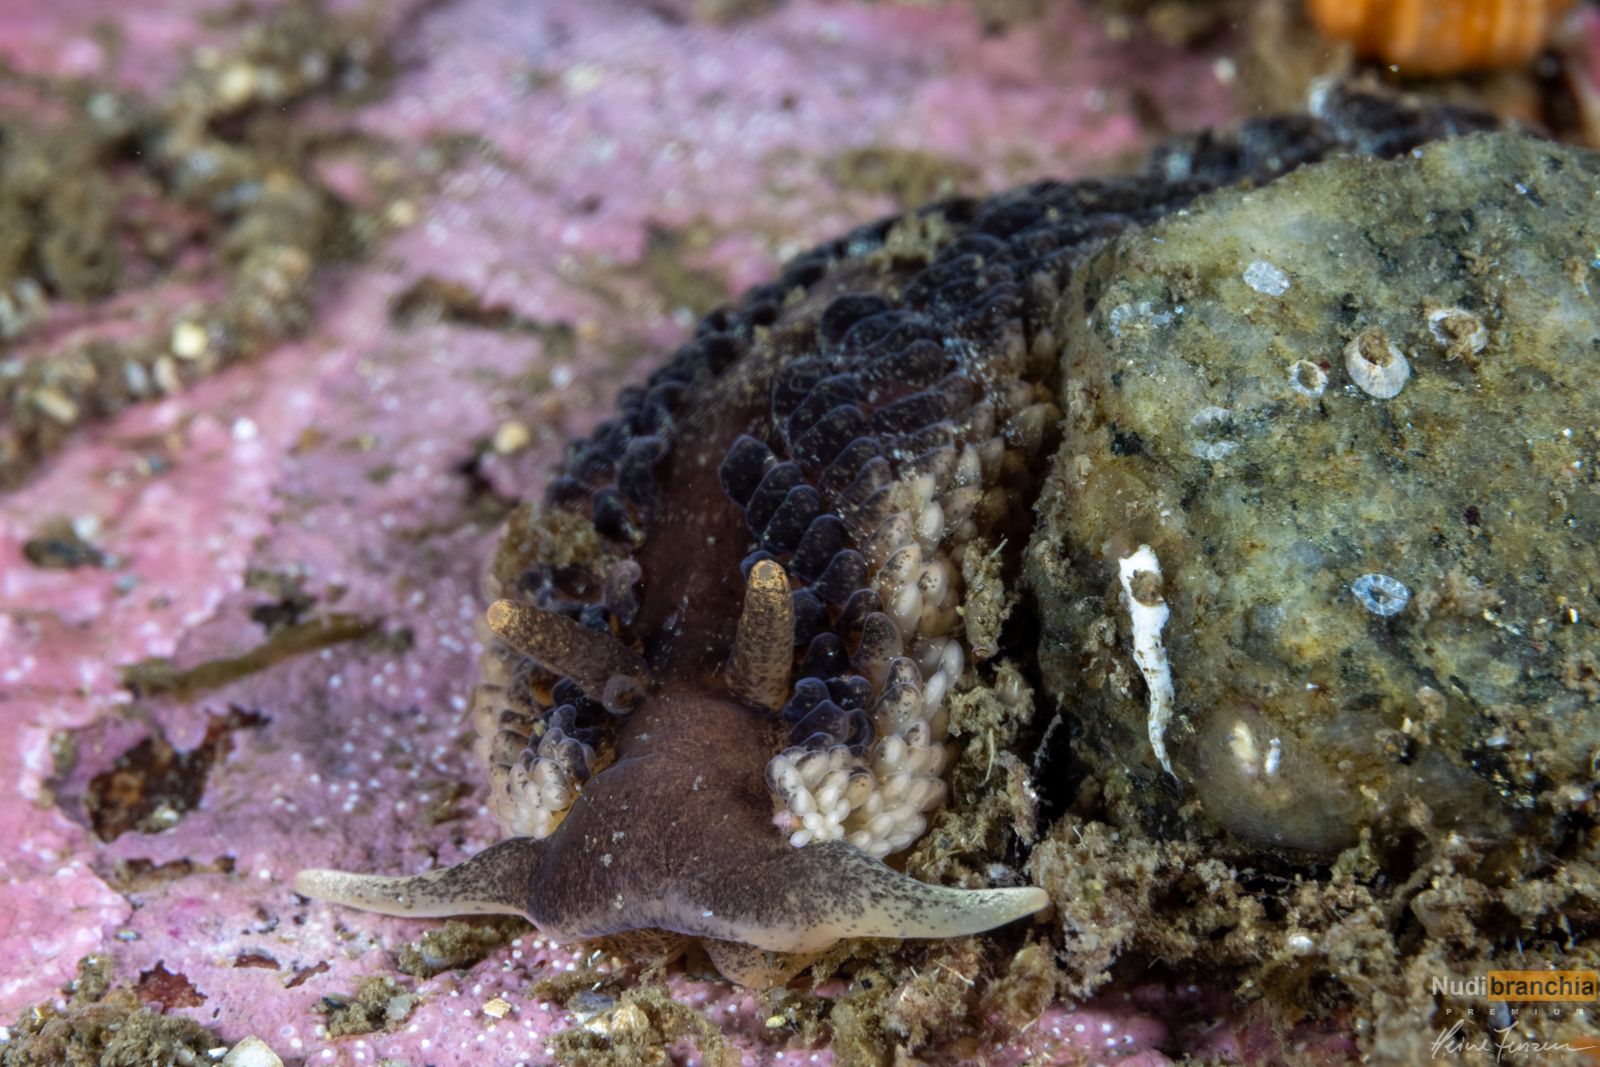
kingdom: Animalia
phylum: Mollusca
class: Gastropoda
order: Nudibranchia
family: Aeolidiidae
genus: Aeolidia
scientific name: Aeolidia papillosa
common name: Common grey sea slug
